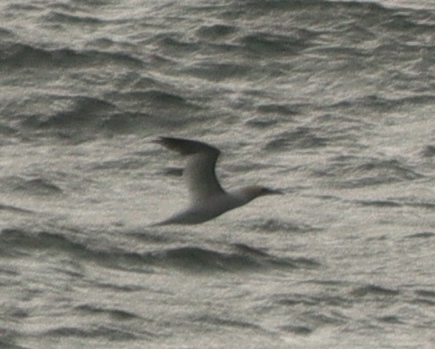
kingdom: Animalia
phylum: Chordata
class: Aves
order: Suliformes
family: Sulidae
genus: Morus
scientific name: Morus bassanus
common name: Northern gannet
